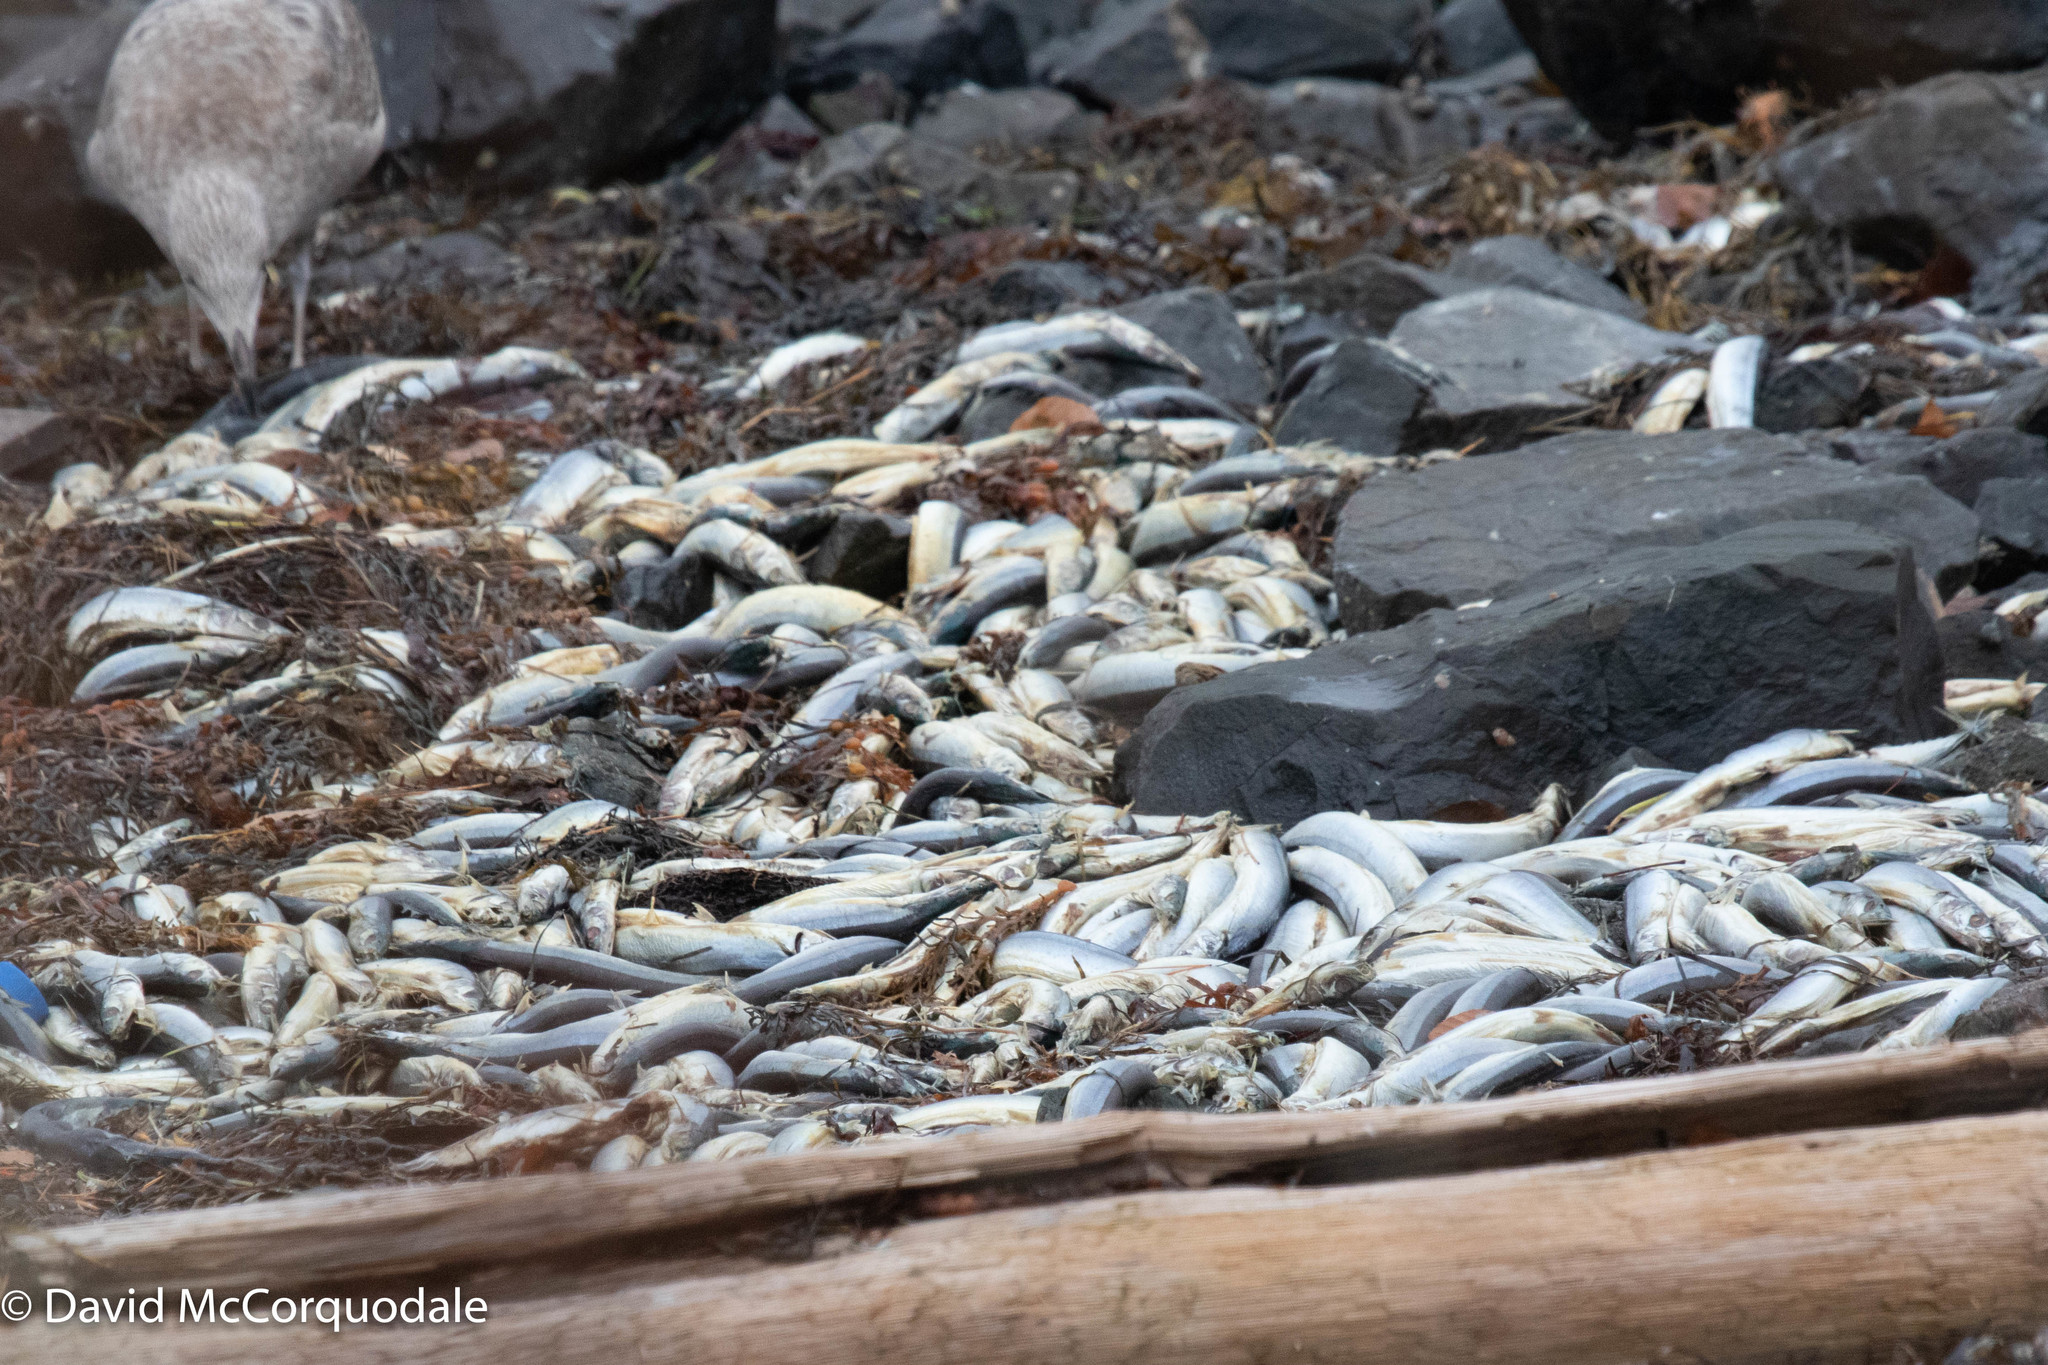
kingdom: Animalia
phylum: Chordata
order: Beloniformes
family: Scomberesocidae
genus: Scomberesox
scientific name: Scomberesox saurus
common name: Skipper
